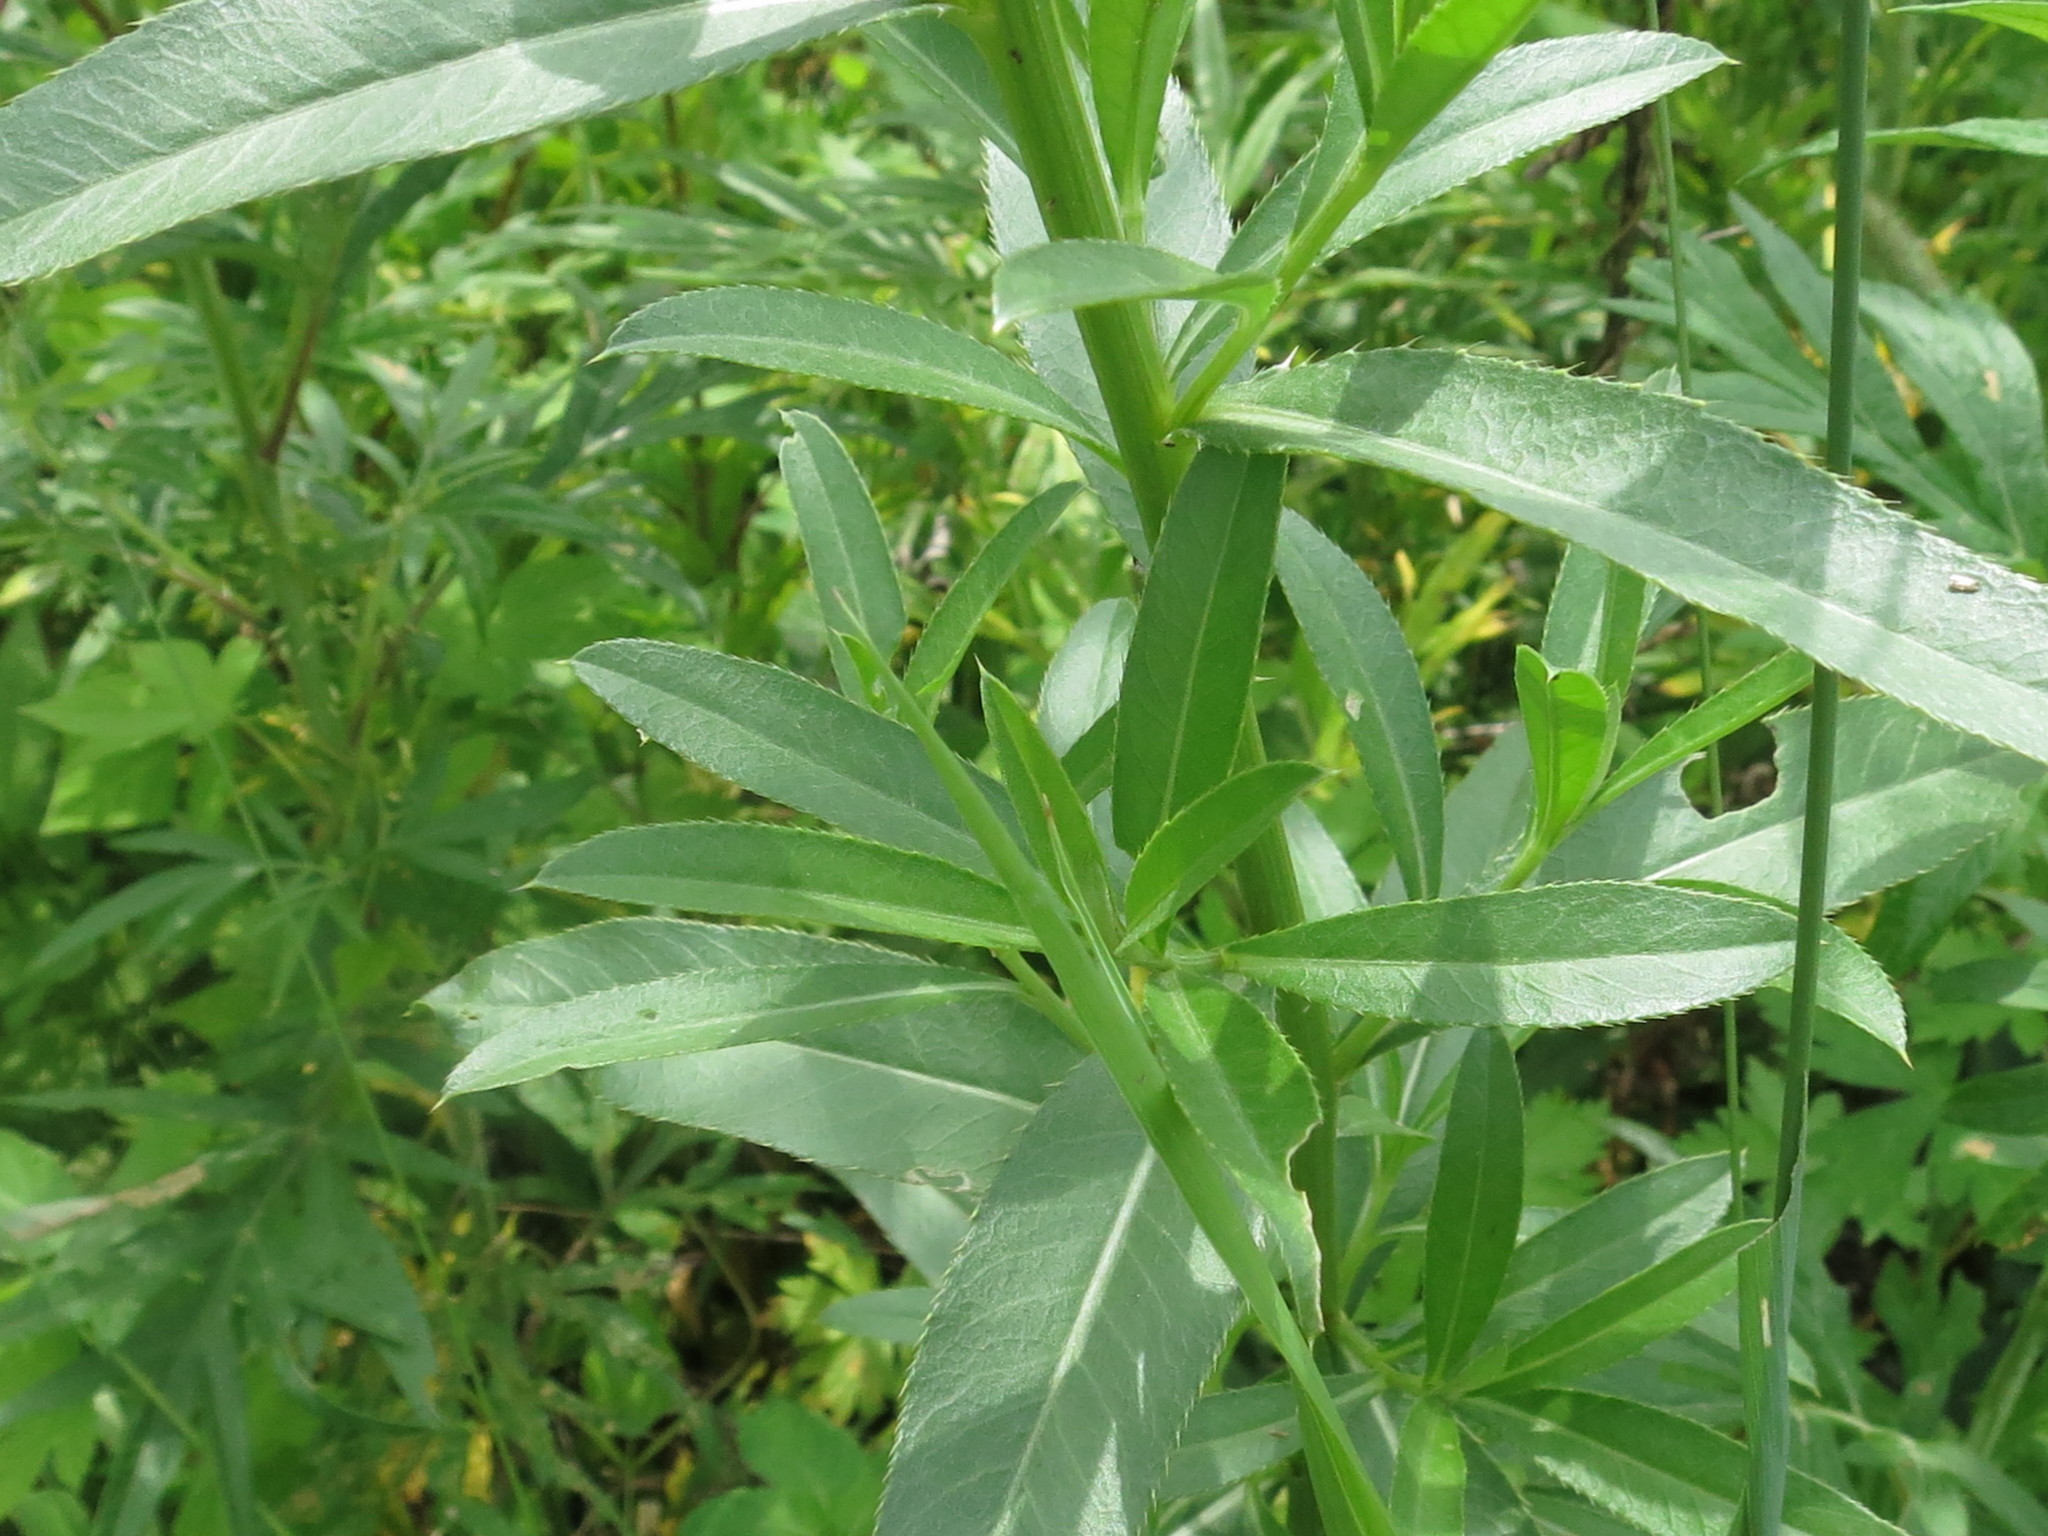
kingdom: Plantae
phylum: Tracheophyta
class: Magnoliopsida
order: Asterales
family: Asteraceae
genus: Cirsium
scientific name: Cirsium arvense
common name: Creeping thistle
